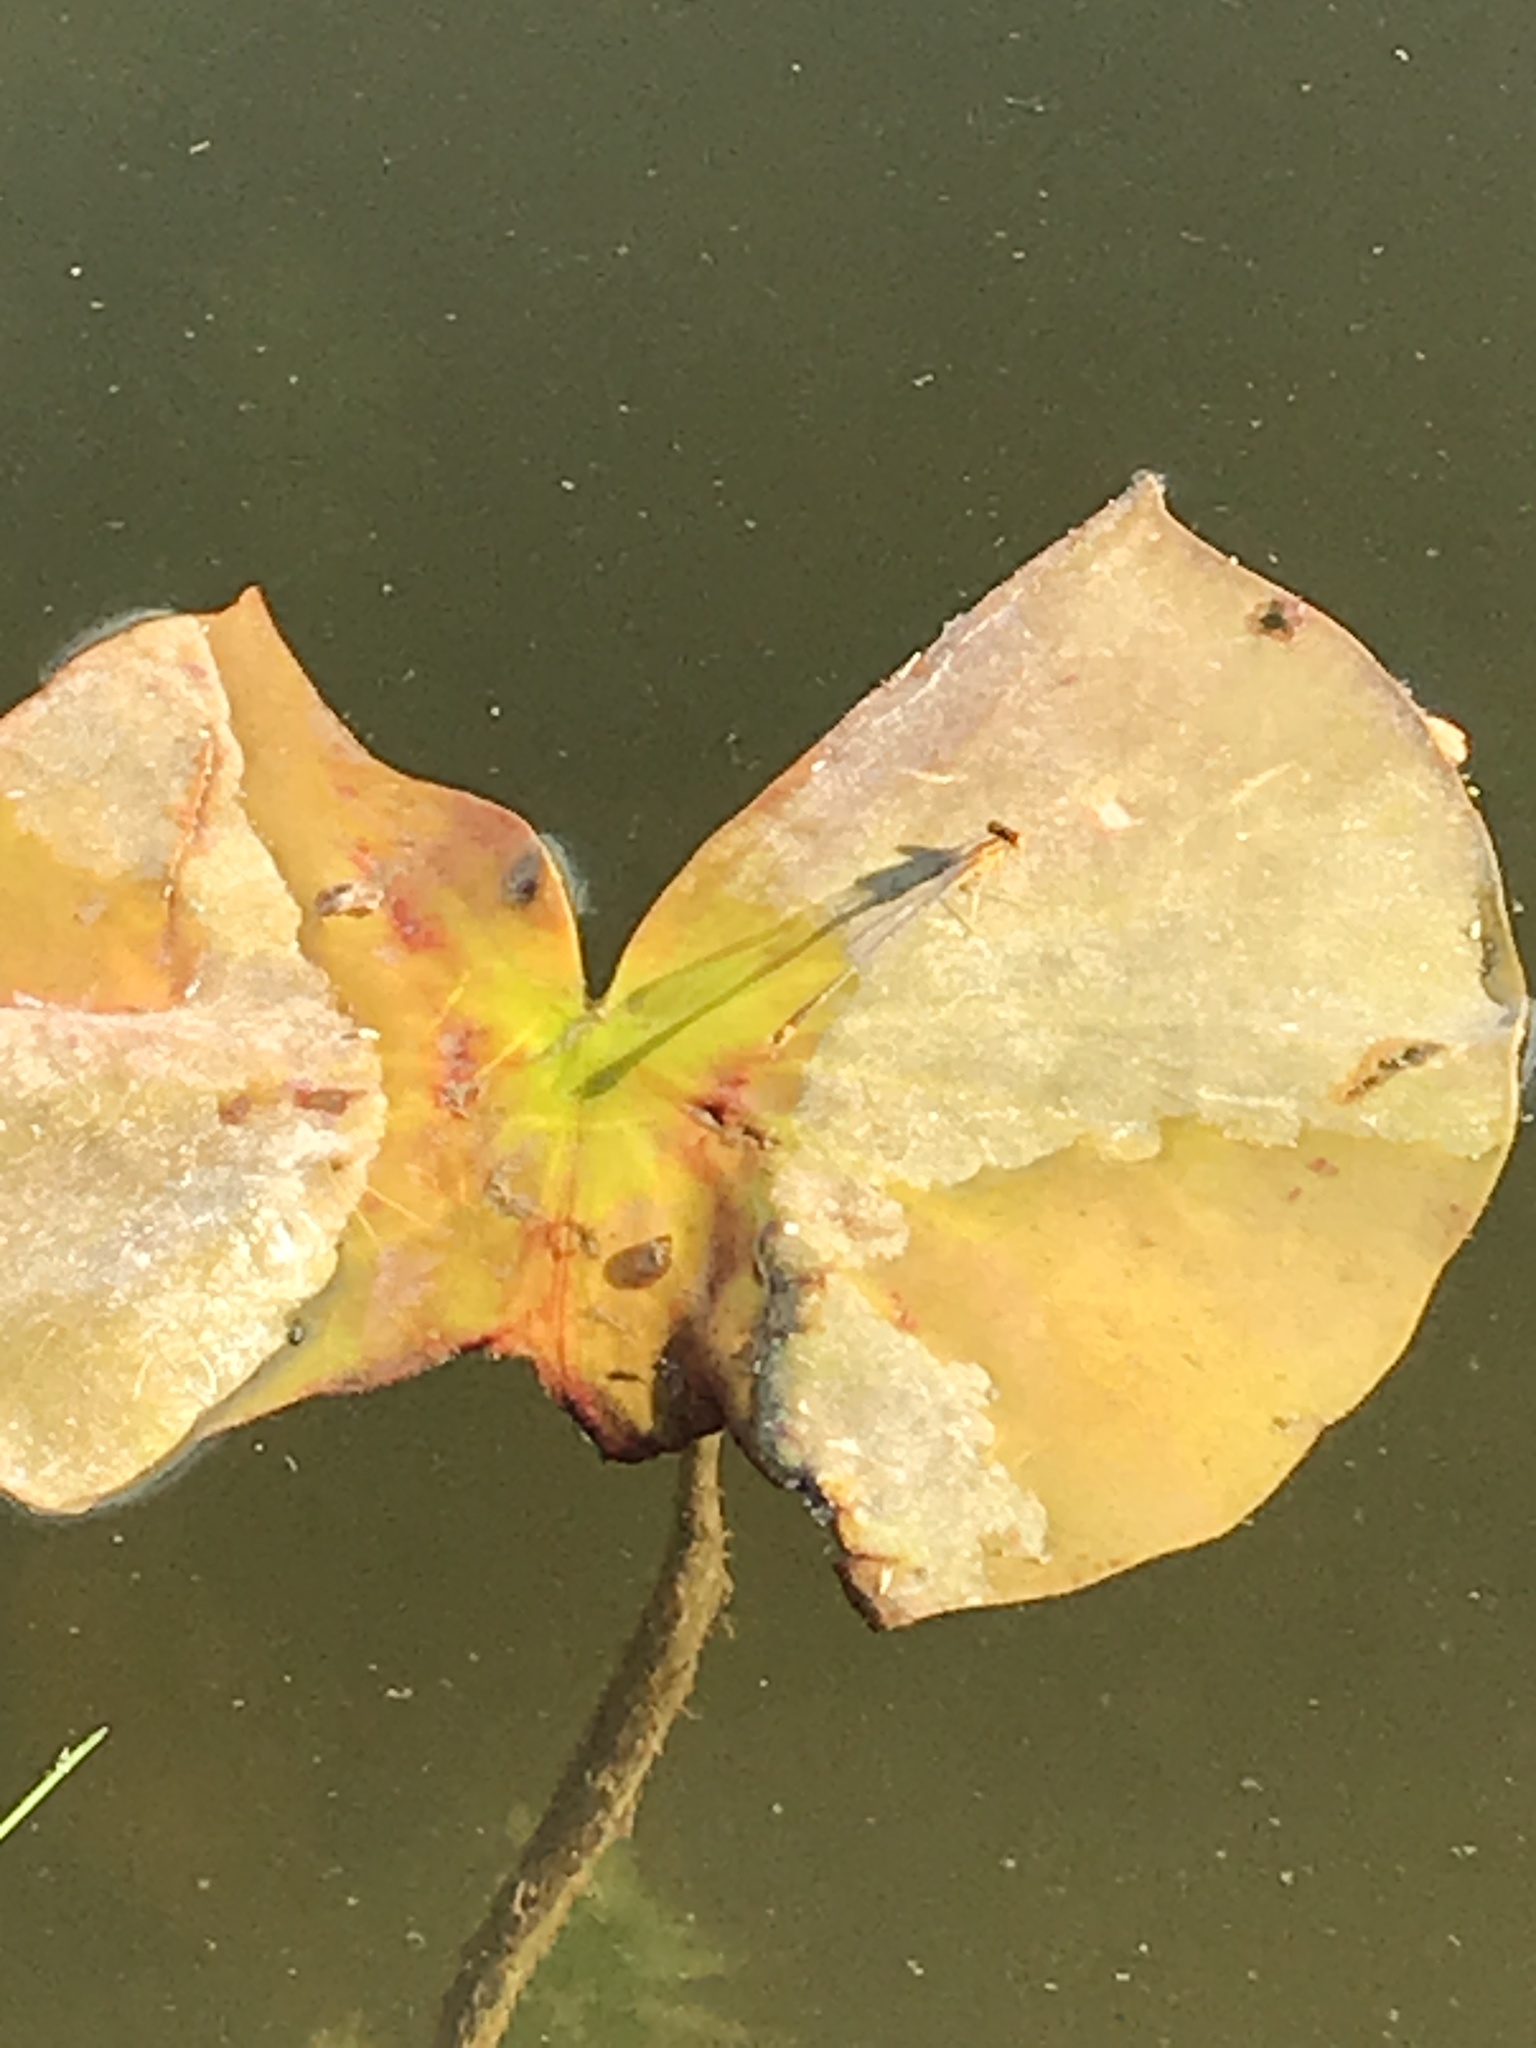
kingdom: Animalia
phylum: Arthropoda
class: Insecta
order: Odonata
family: Coenagrionidae
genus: Enallagma
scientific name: Enallagma signatum
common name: Orange bluet
